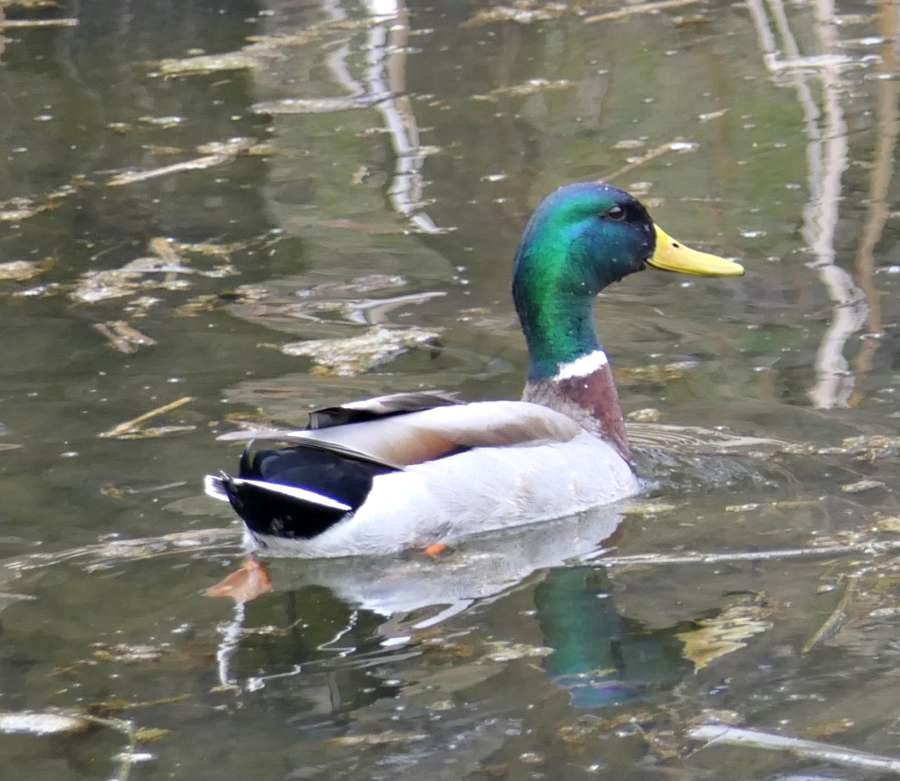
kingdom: Animalia
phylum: Chordata
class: Aves
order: Anseriformes
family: Anatidae
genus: Anas
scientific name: Anas platyrhynchos
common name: Mallard
